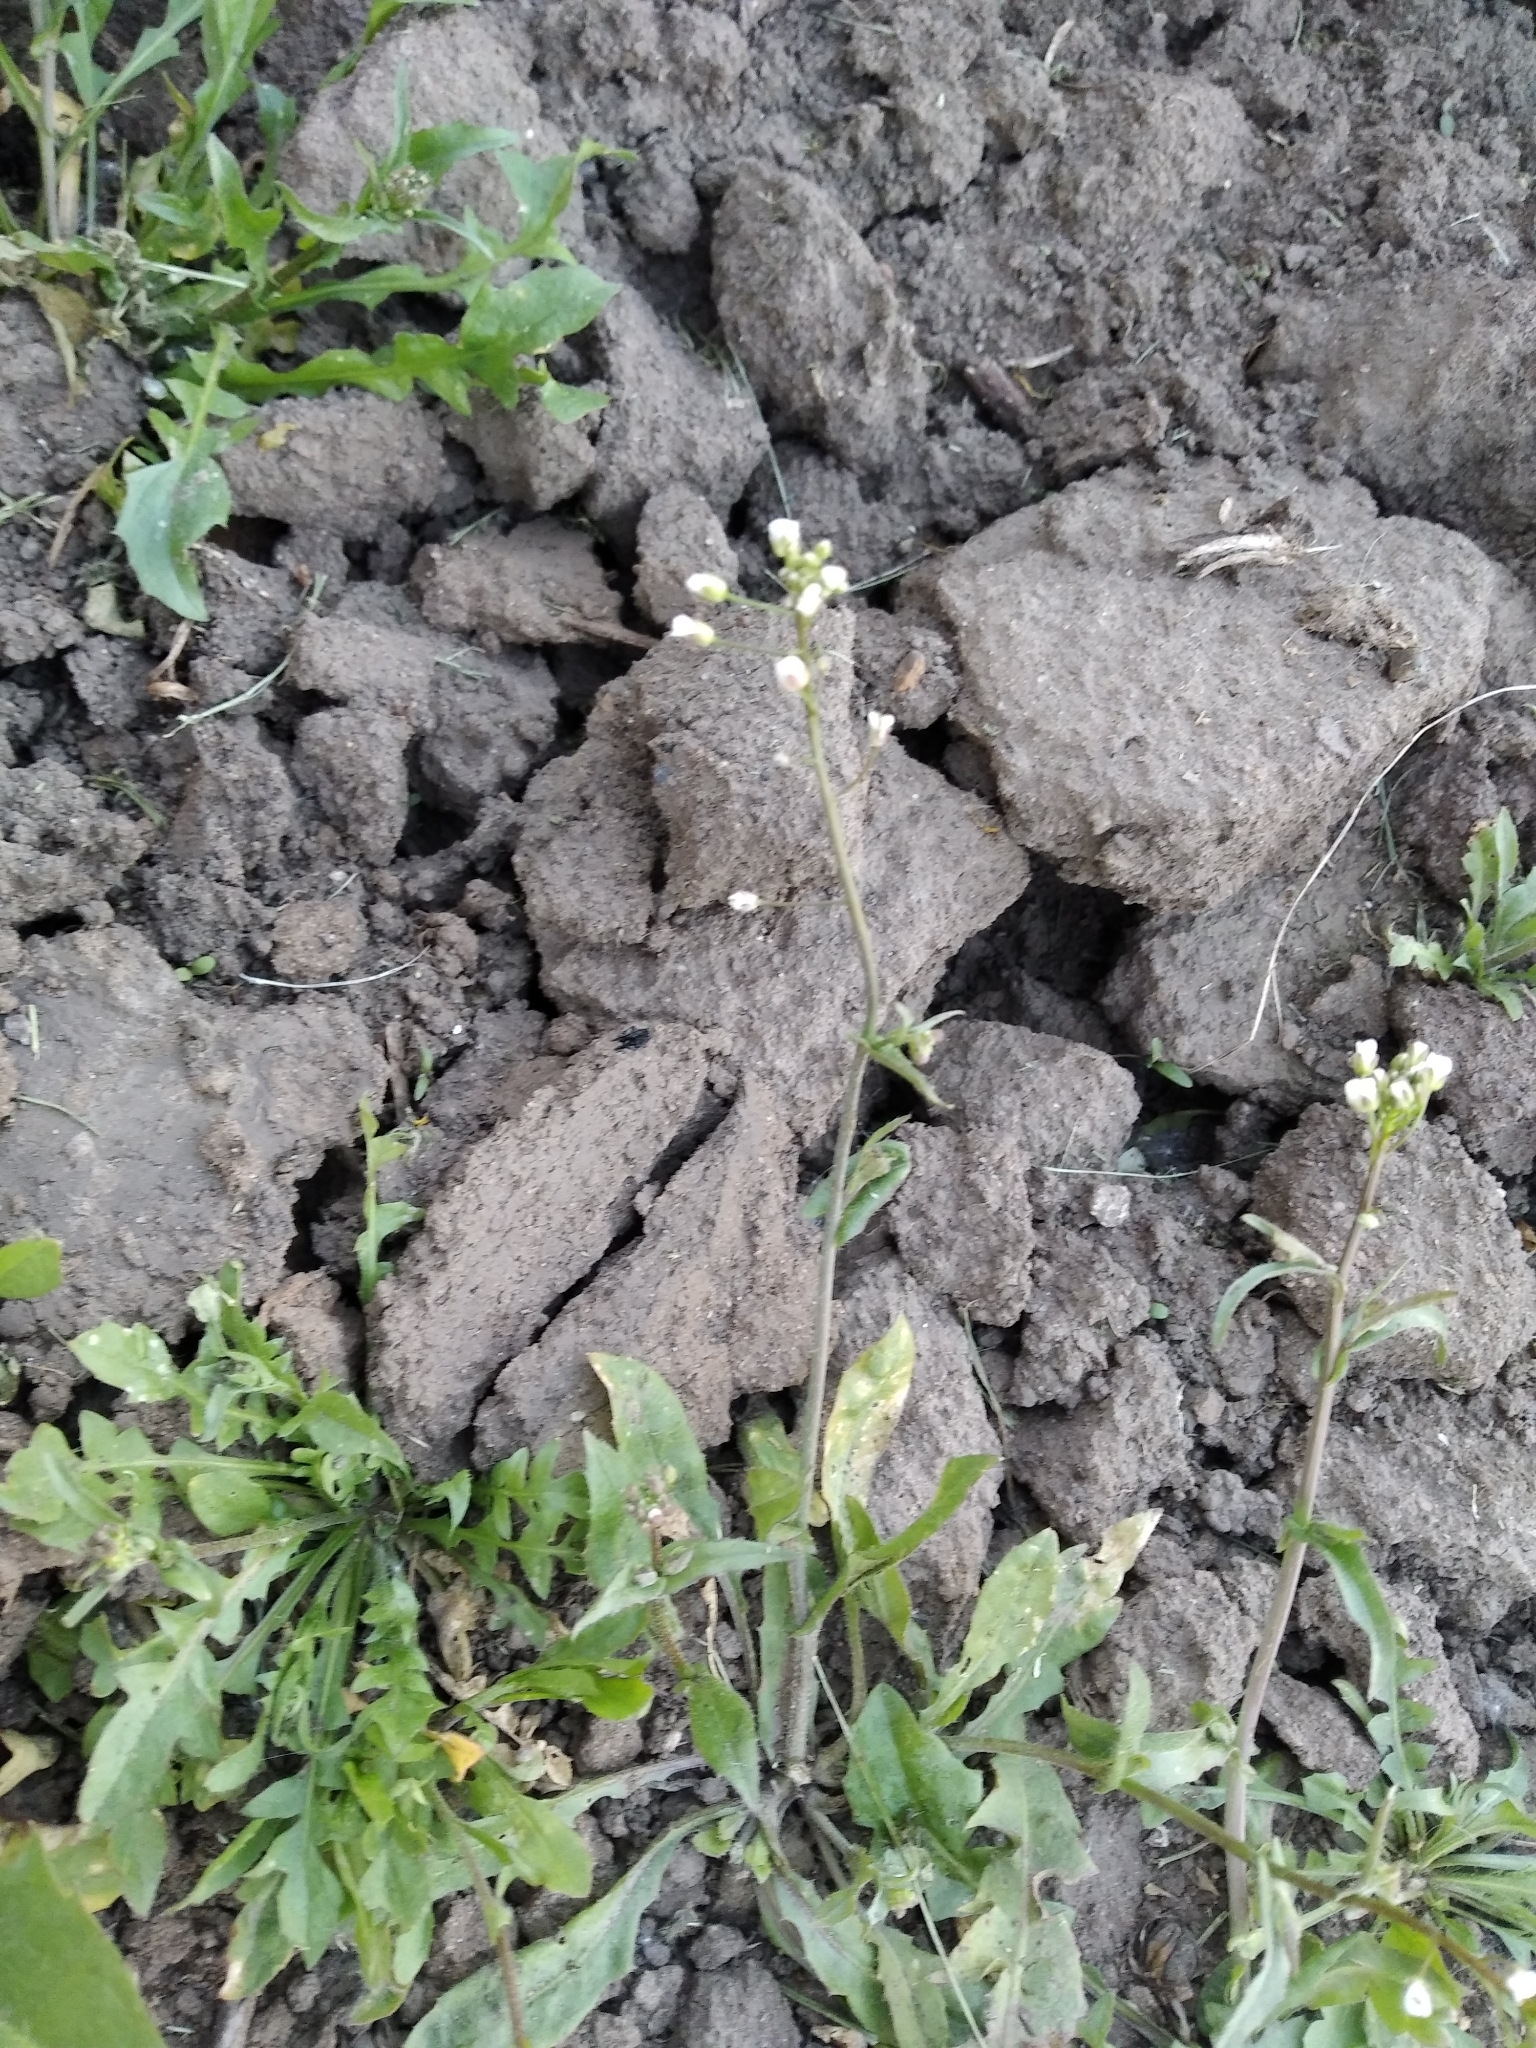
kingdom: Plantae
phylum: Tracheophyta
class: Magnoliopsida
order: Brassicales
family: Brassicaceae
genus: Capsella
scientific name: Capsella bursa-pastoris
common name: Shepherd's purse
